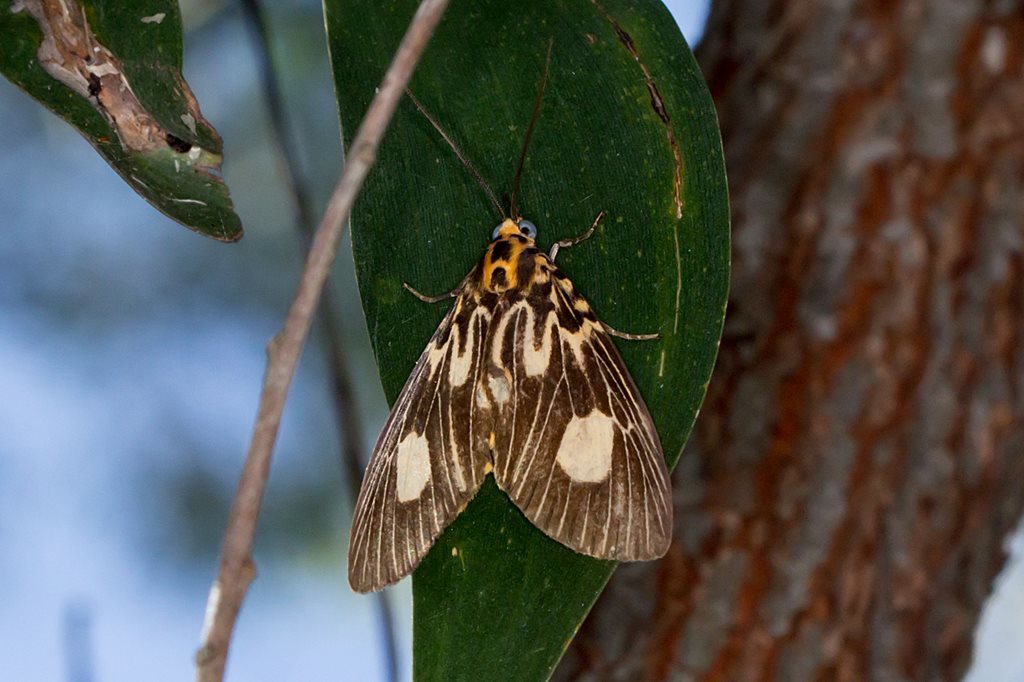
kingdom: Animalia
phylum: Arthropoda
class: Insecta
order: Lepidoptera
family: Erebidae
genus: Asota
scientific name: Asota plagiata
